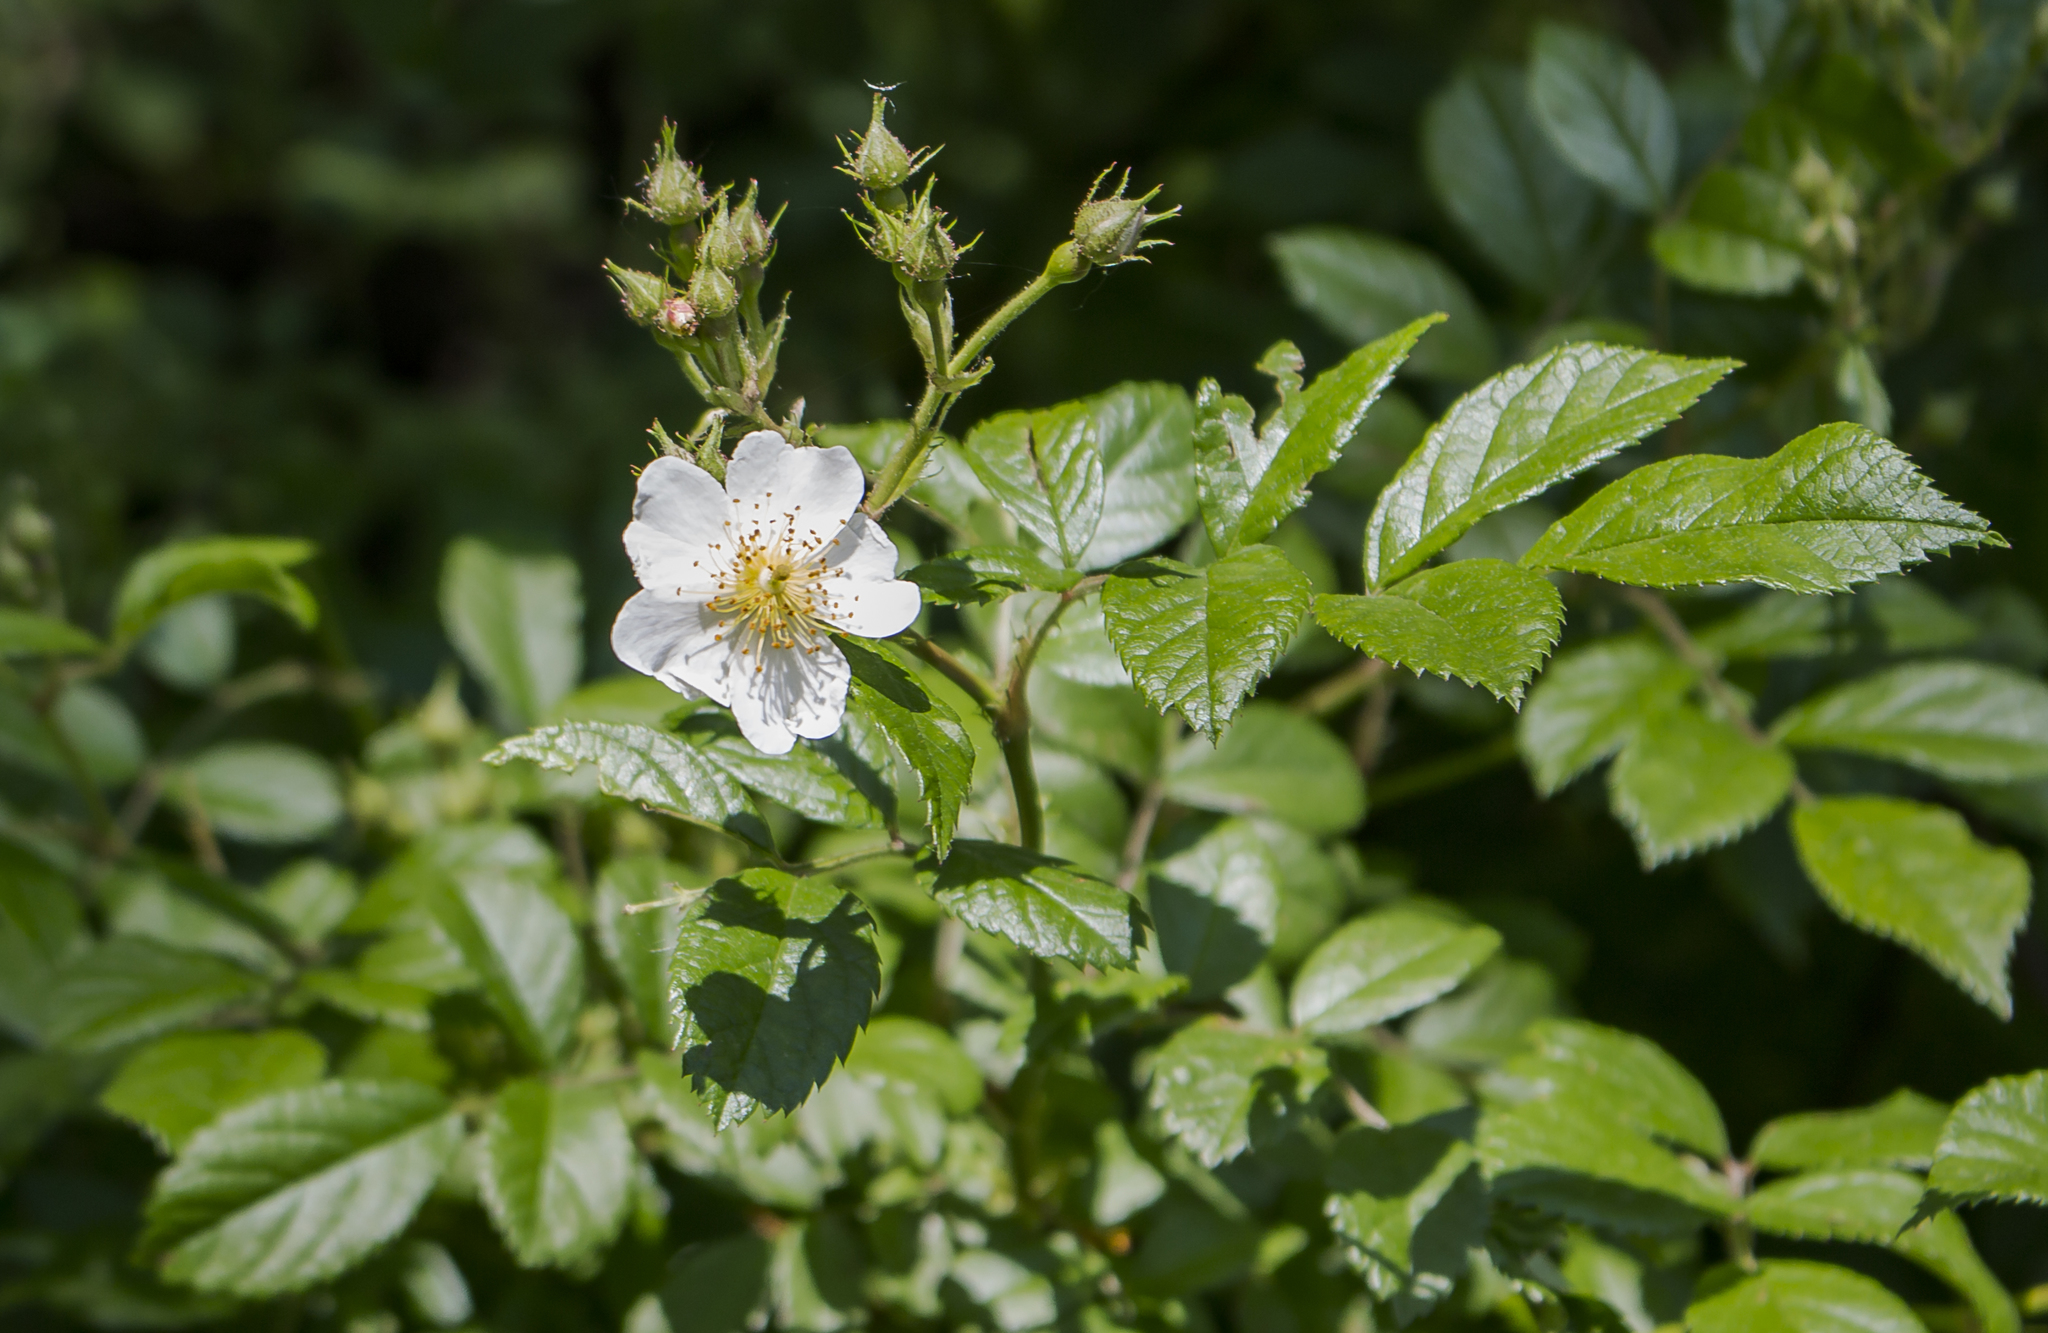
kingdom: Plantae
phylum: Tracheophyta
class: Magnoliopsida
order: Rosales
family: Rosaceae
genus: Rosa
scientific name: Rosa multiflora
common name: Multiflora rose
